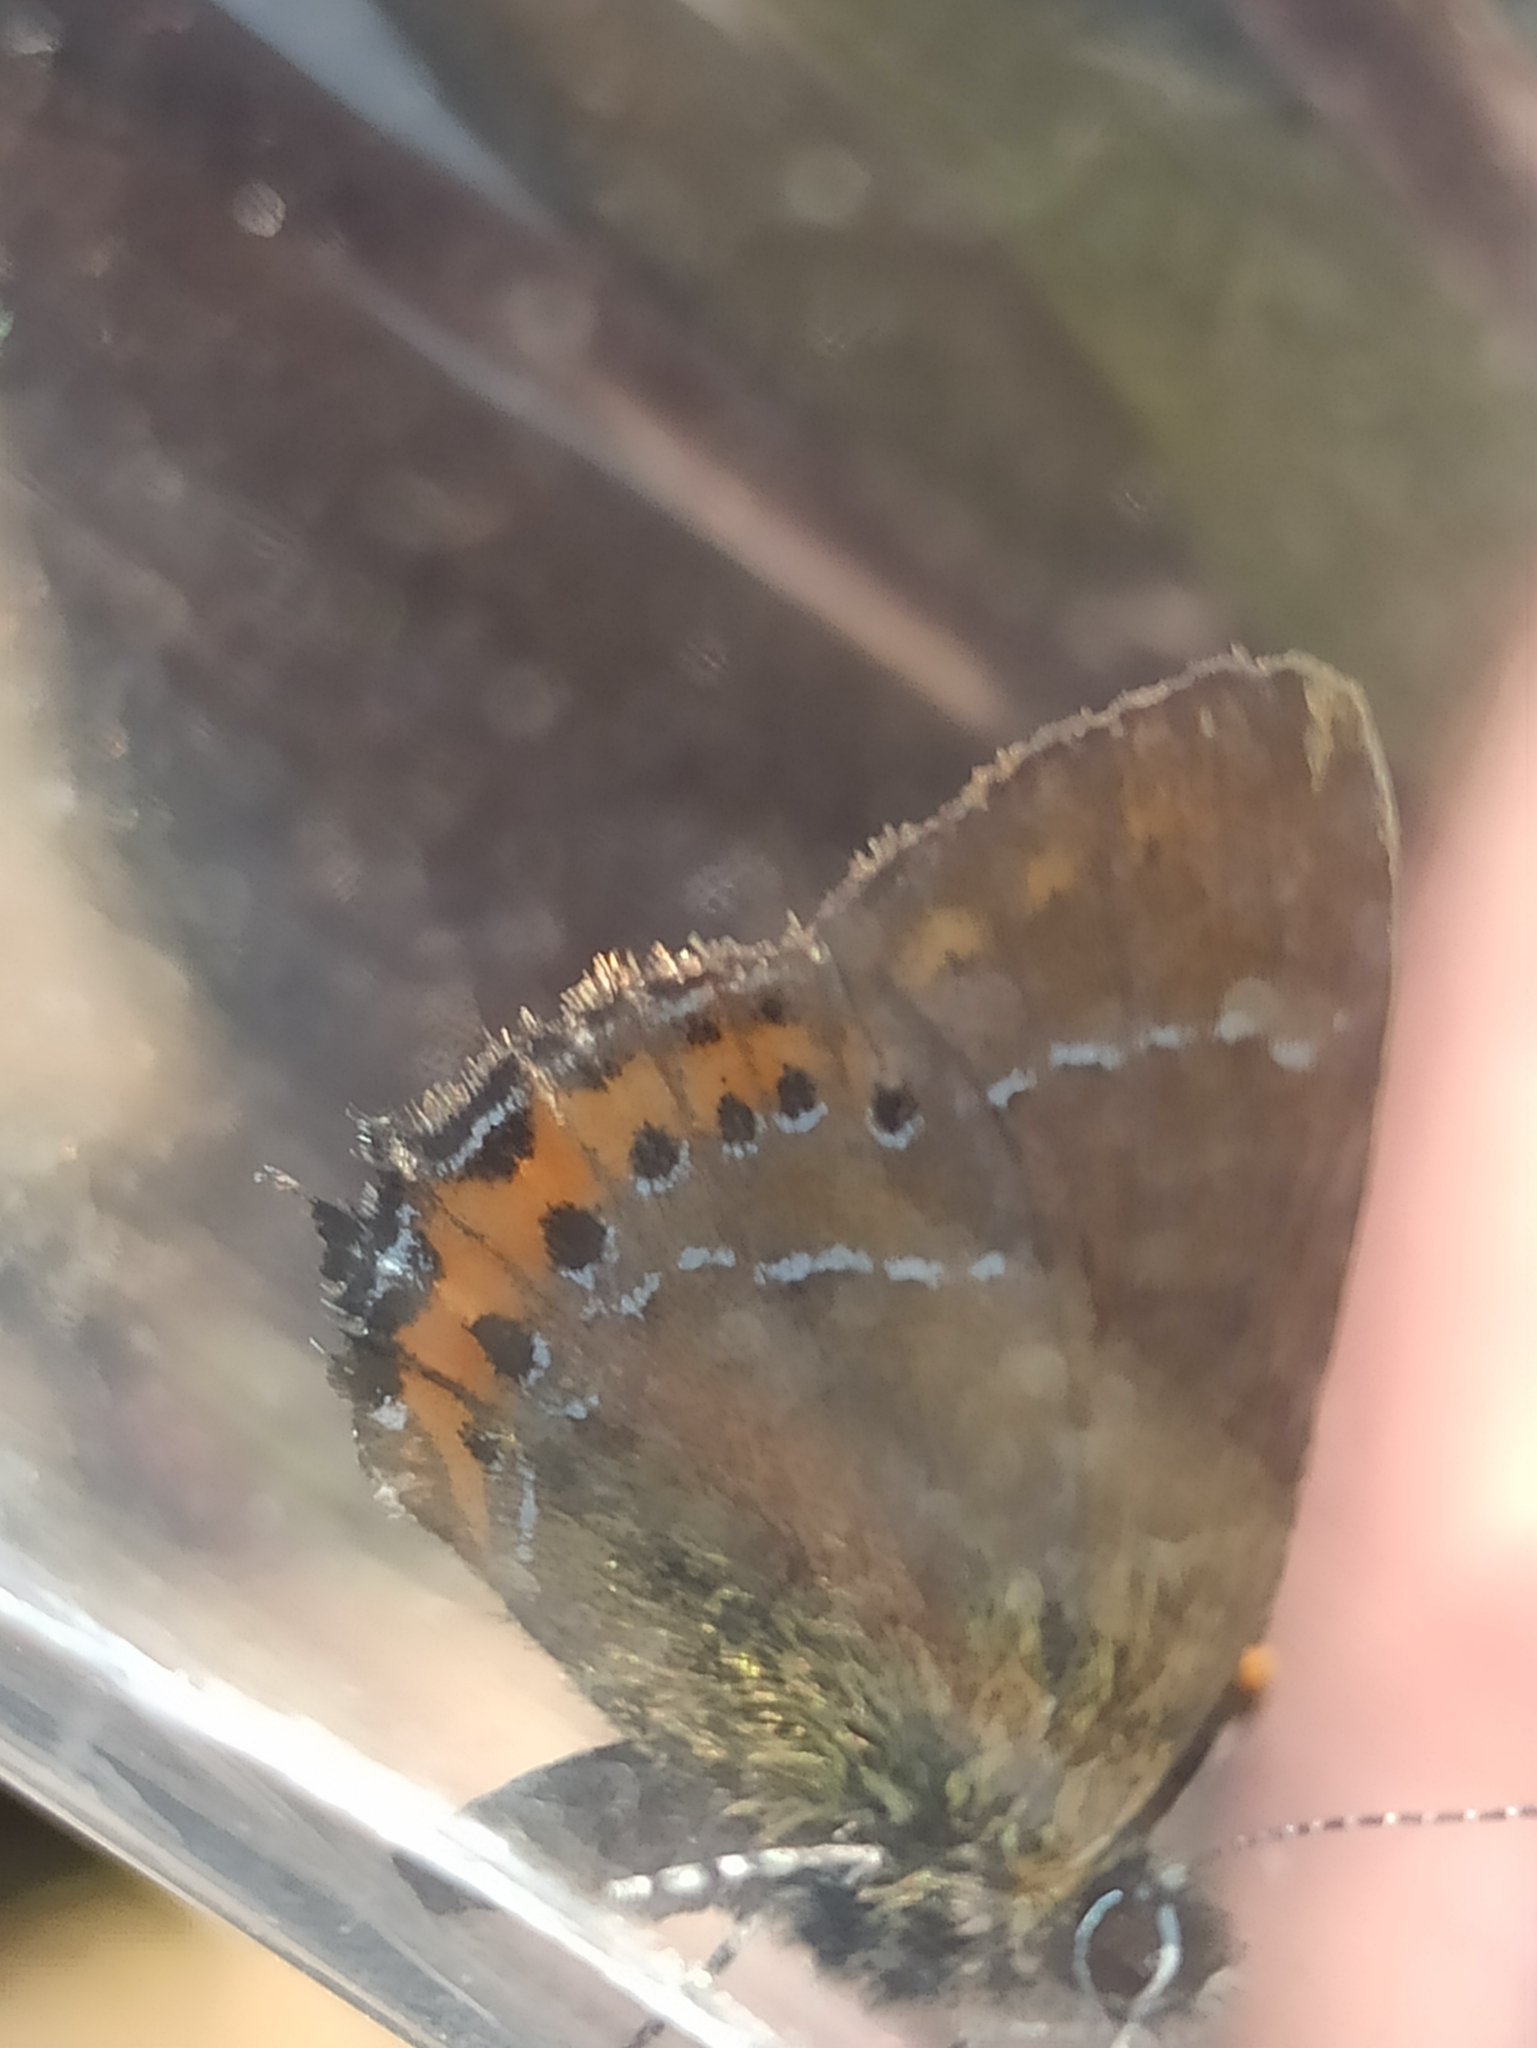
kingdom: Animalia
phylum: Arthropoda
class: Insecta
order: Lepidoptera
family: Lycaenidae
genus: Fixsenia
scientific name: Fixsenia pruni
